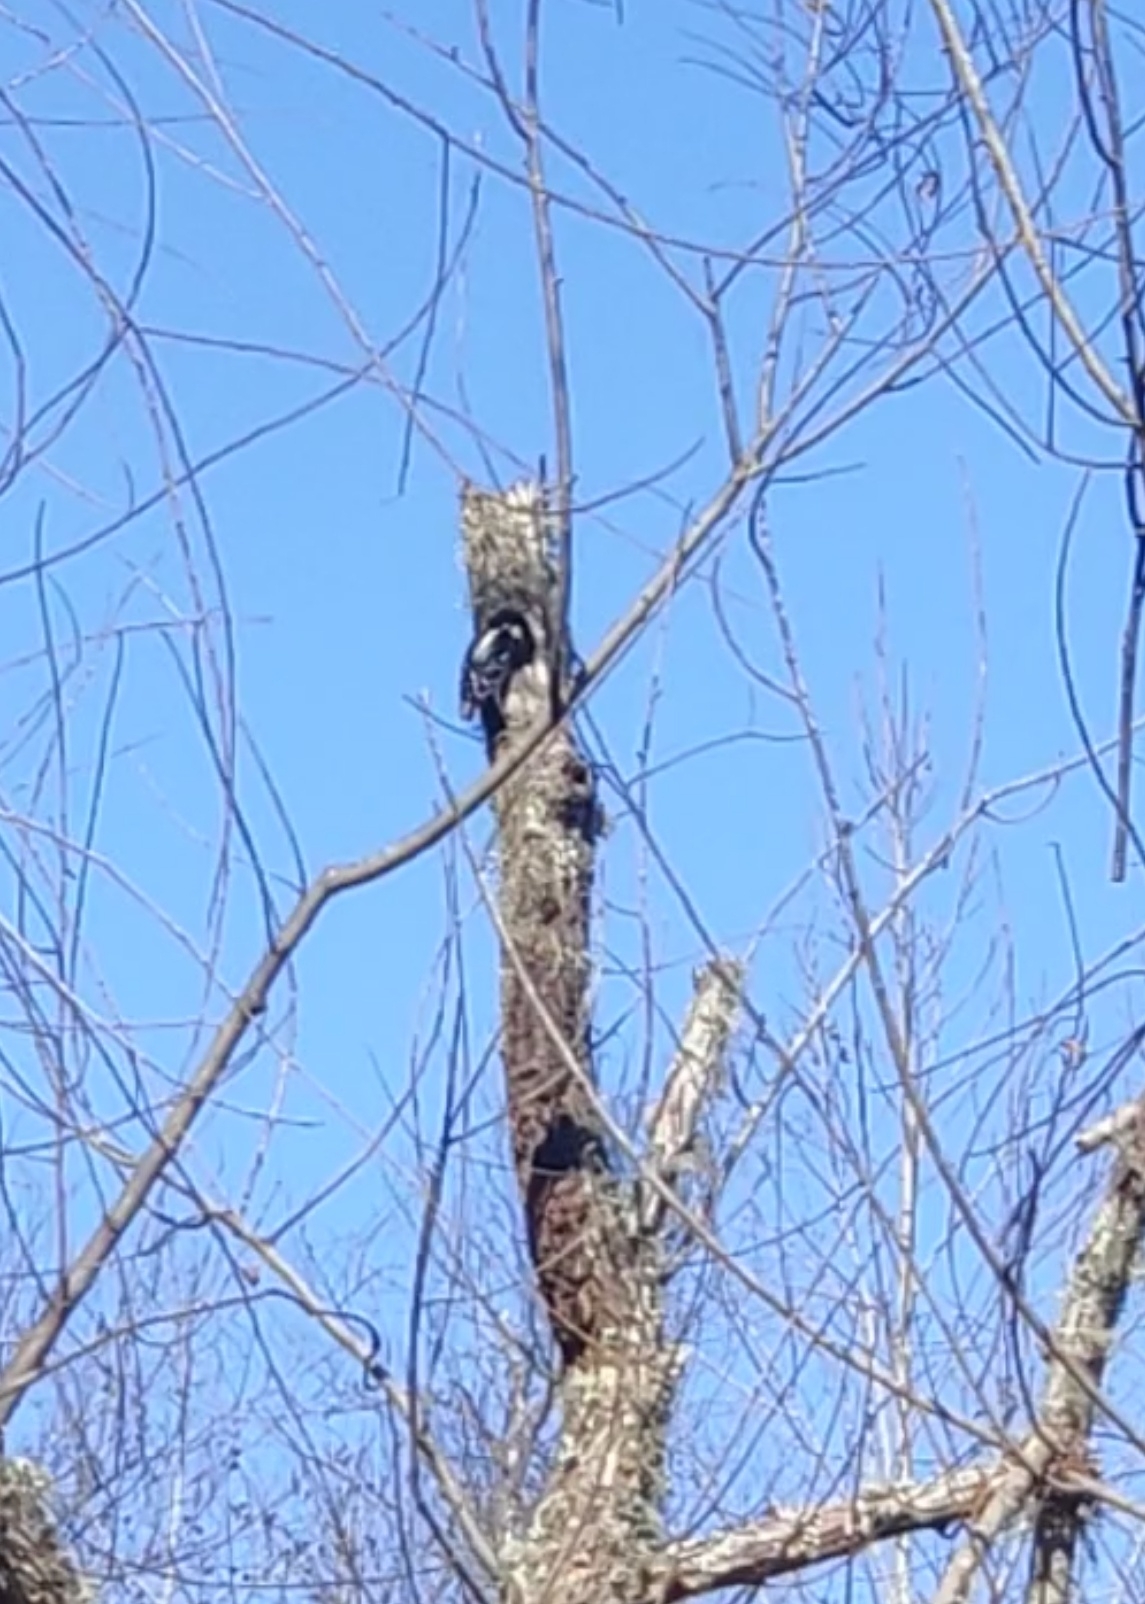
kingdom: Animalia
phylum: Chordata
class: Aves
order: Piciformes
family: Picidae
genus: Dryobates
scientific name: Dryobates pubescens
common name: Downy woodpecker
